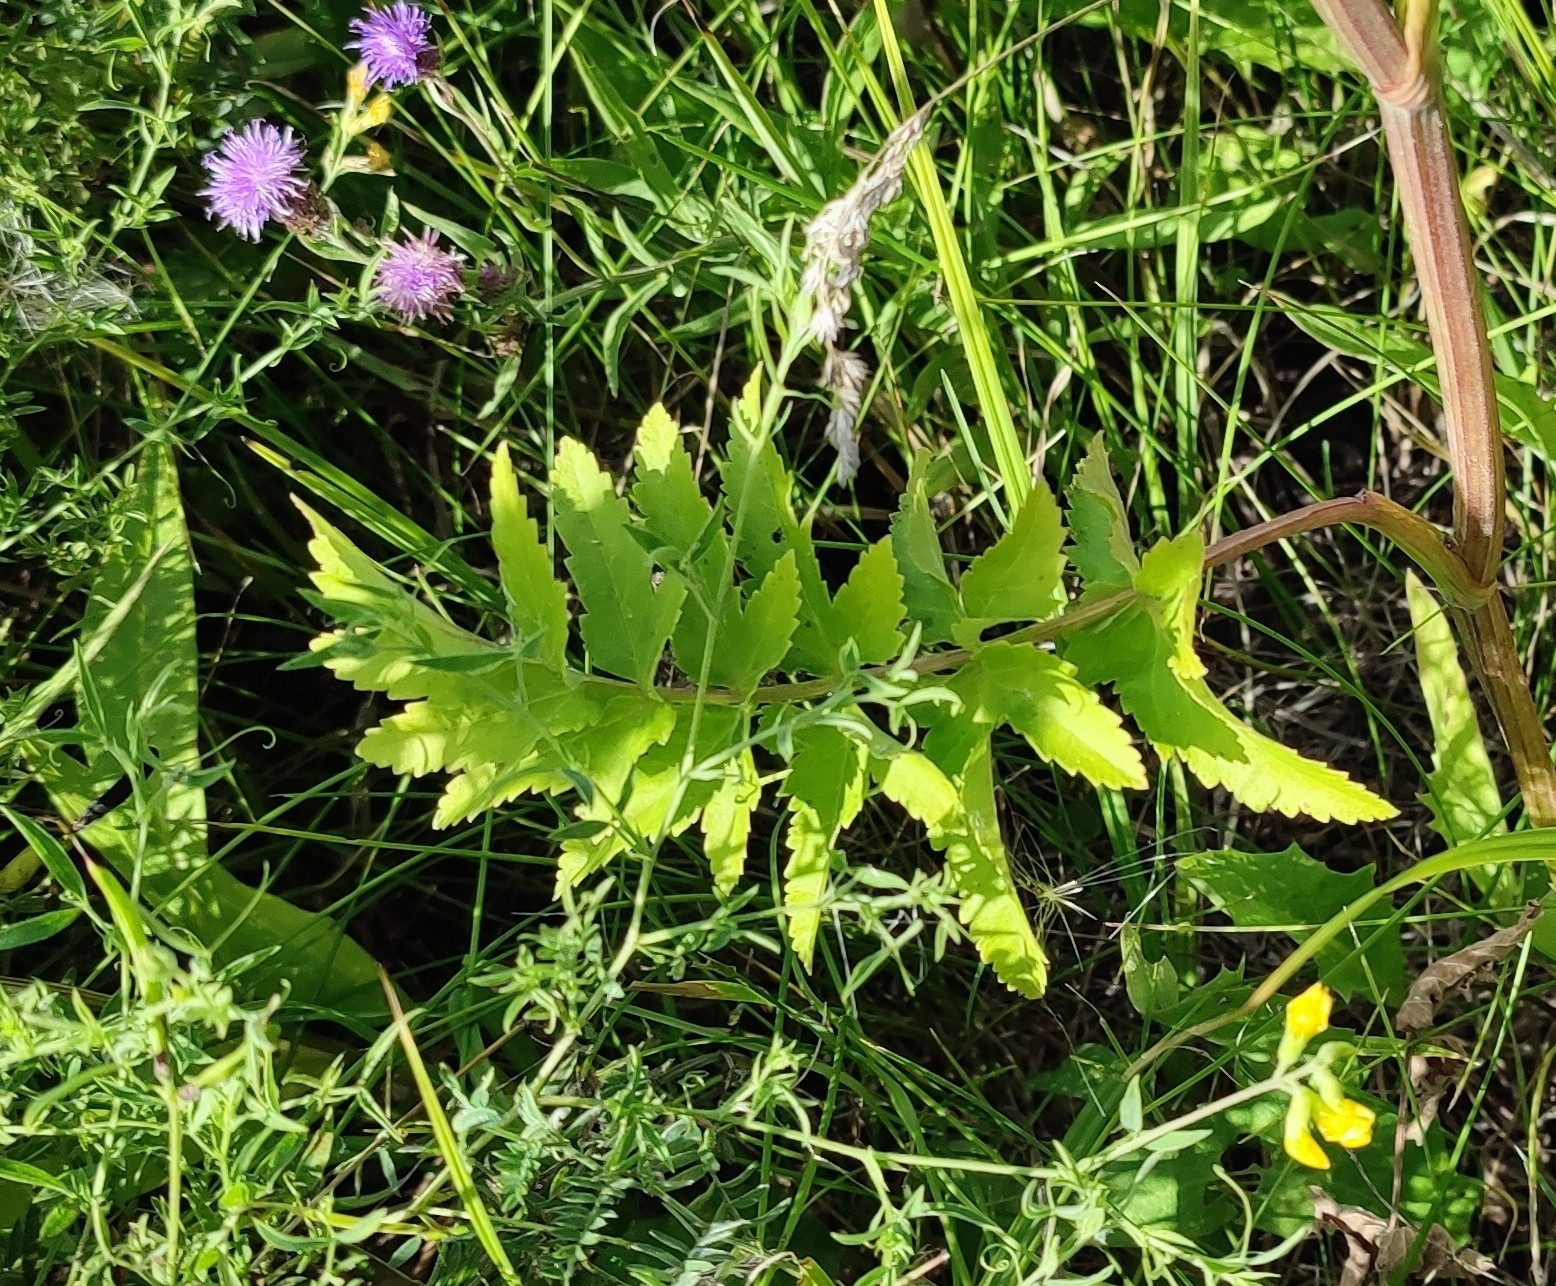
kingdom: Plantae
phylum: Tracheophyta
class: Magnoliopsida
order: Apiales
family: Apiaceae
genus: Pastinaca
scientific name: Pastinaca sativa
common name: Wild parsnip
